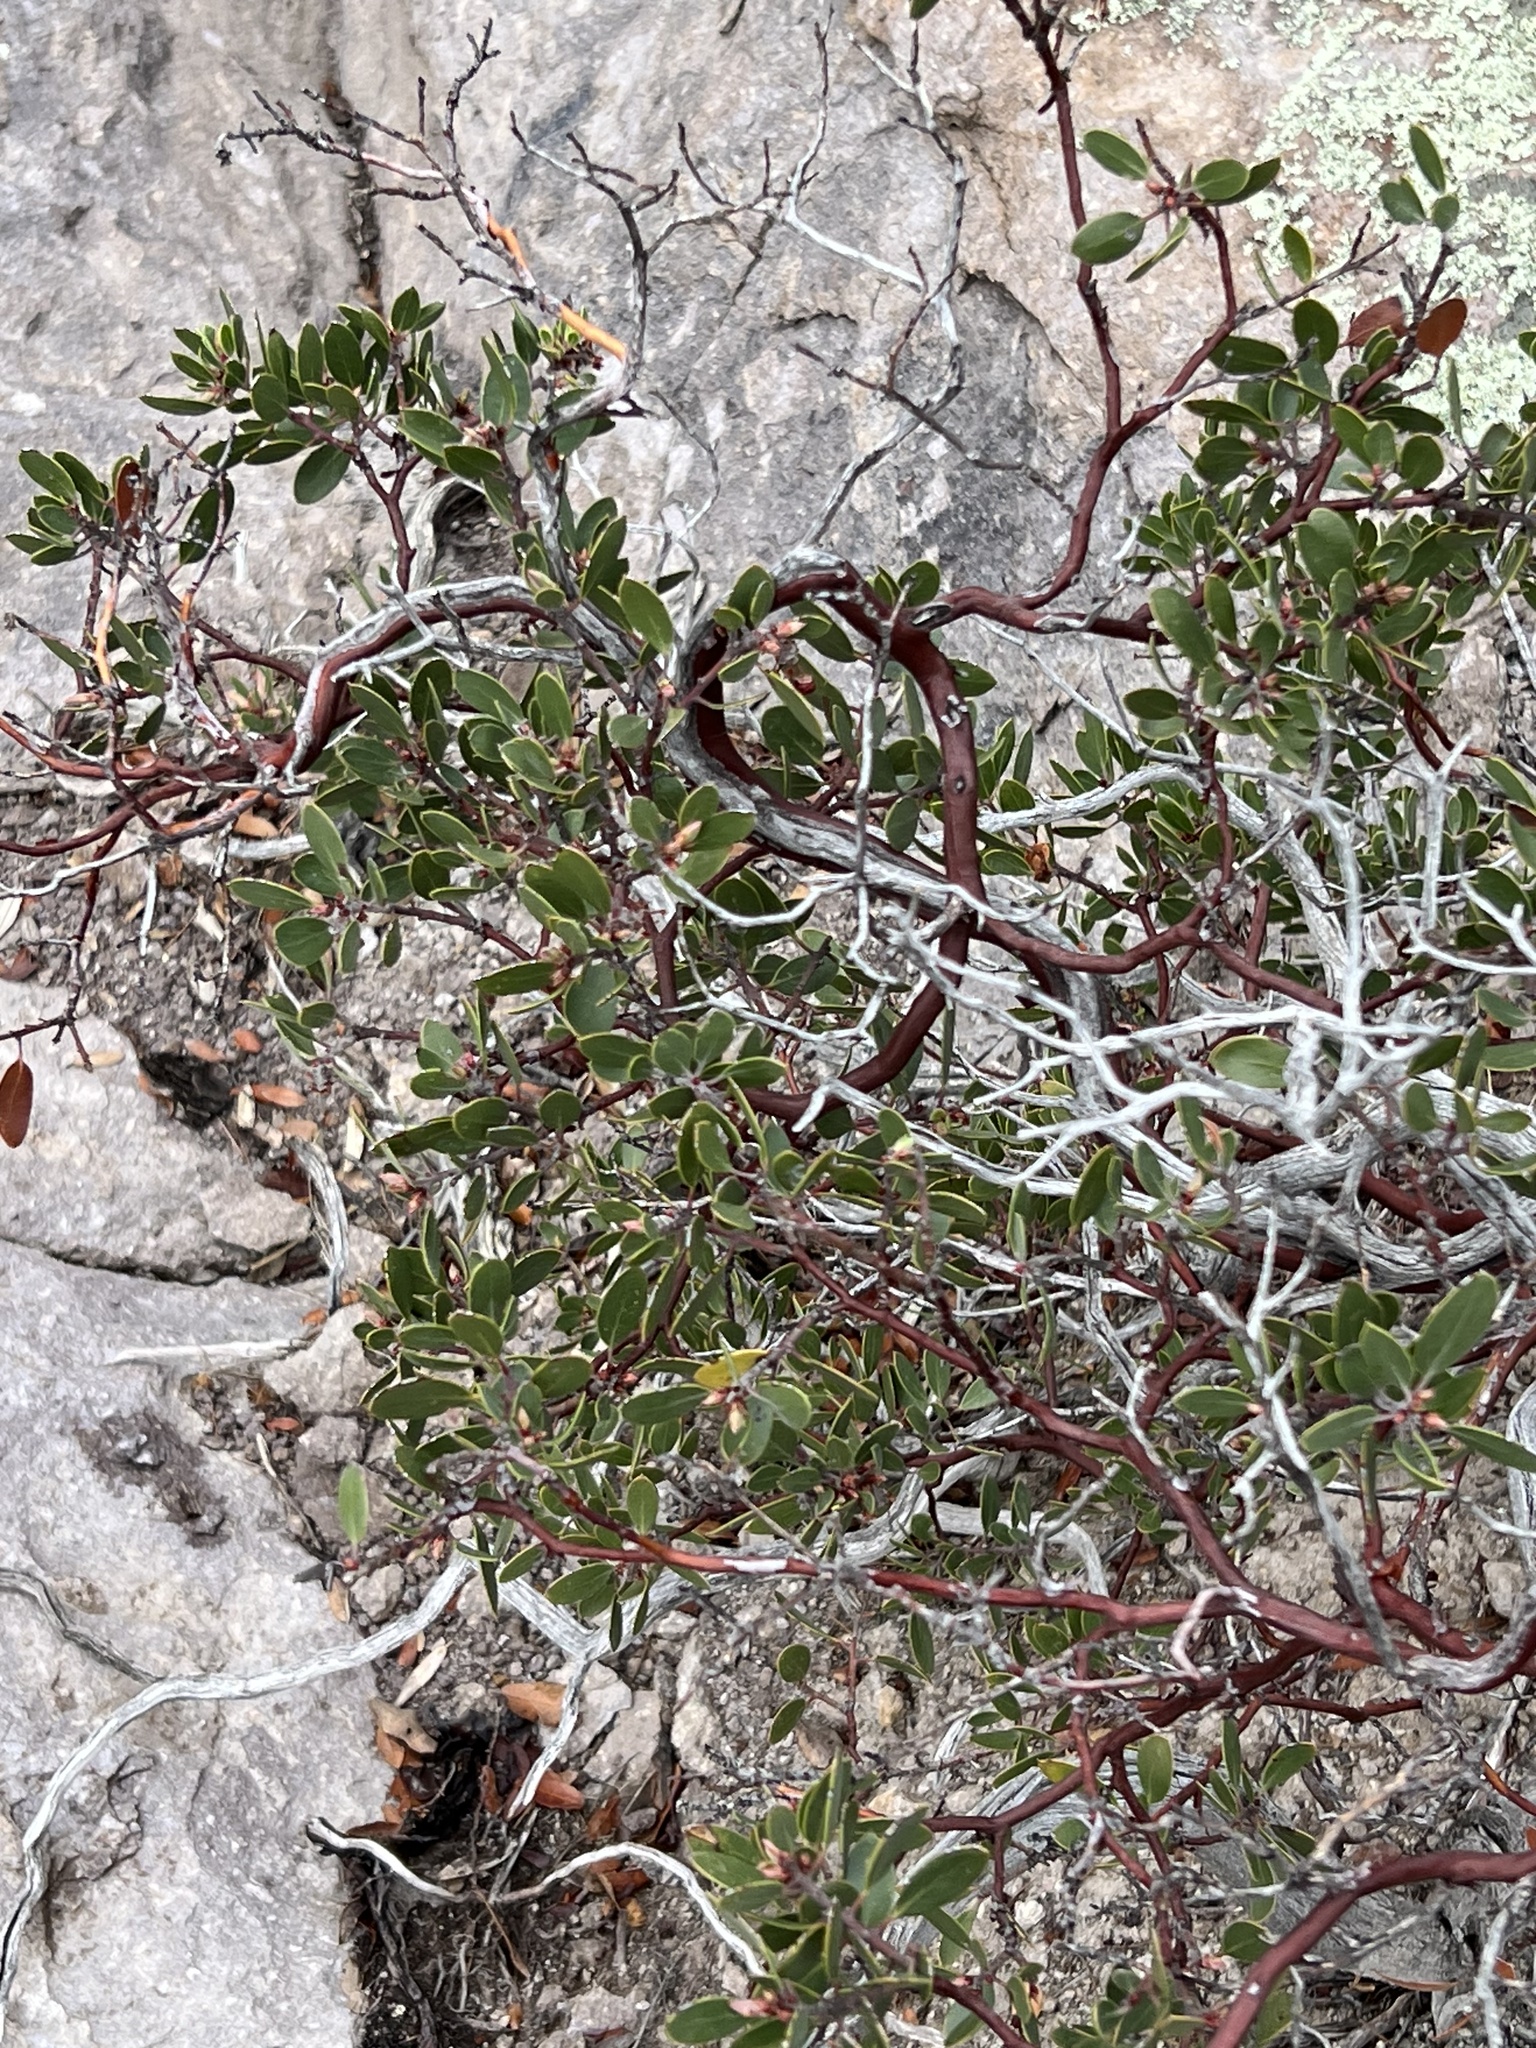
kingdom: Plantae
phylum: Tracheophyta
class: Magnoliopsida
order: Ericales
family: Ericaceae
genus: Arctostaphylos
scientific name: Arctostaphylos pungens
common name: Mexican manzanita
